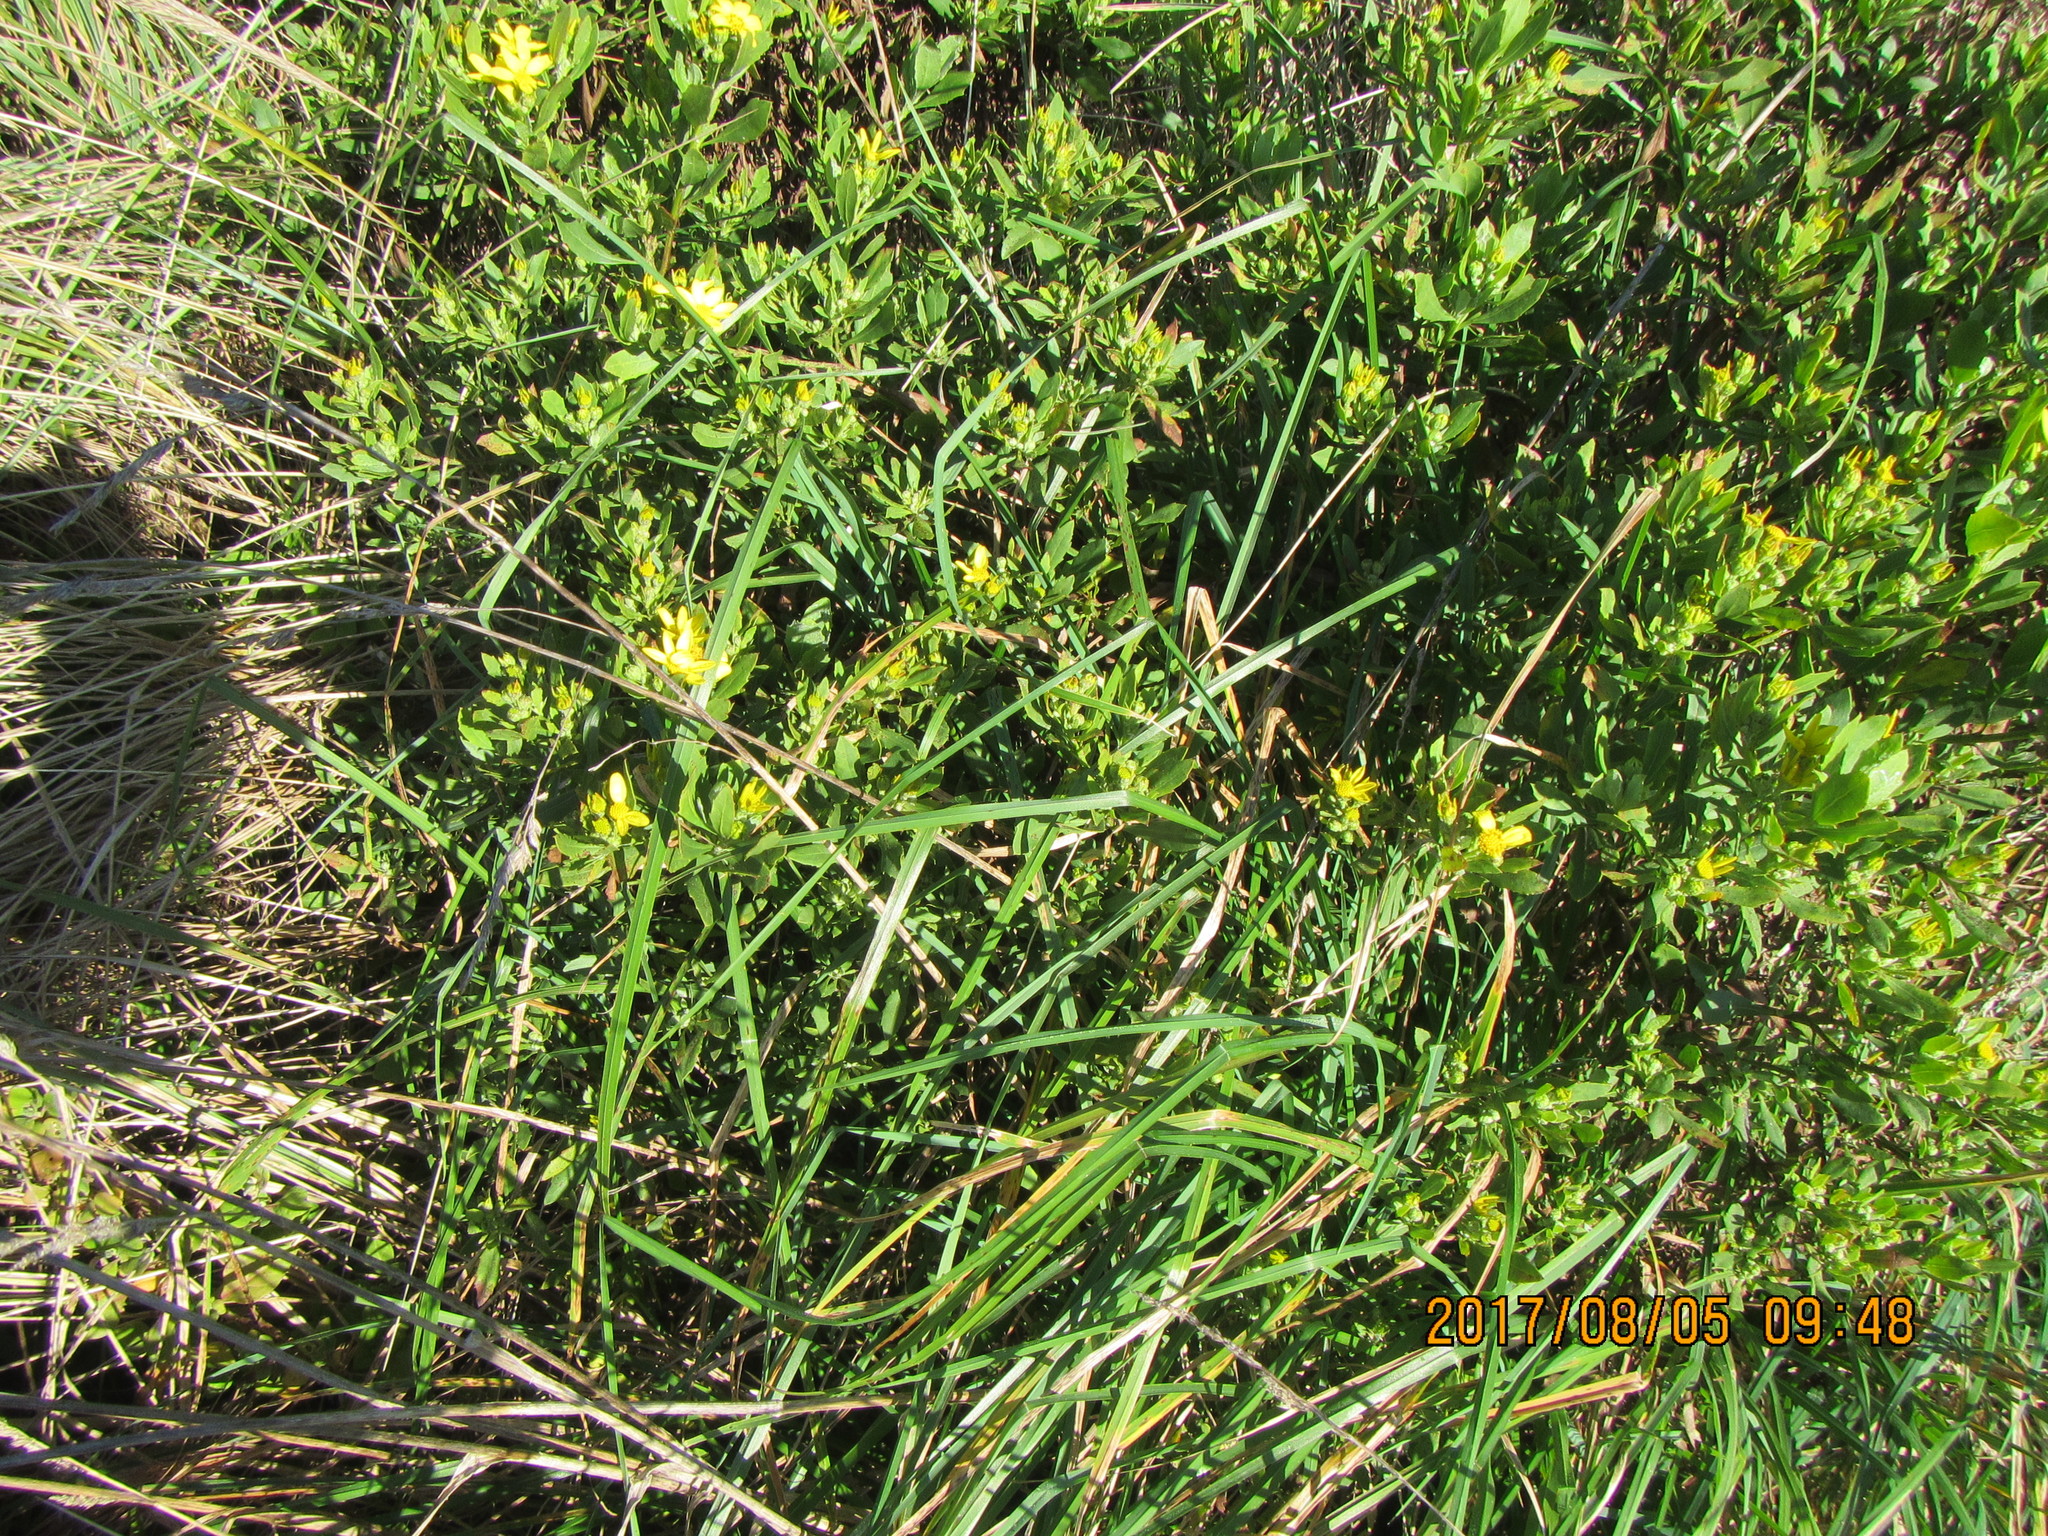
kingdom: Plantae
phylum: Tracheophyta
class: Magnoliopsida
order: Asterales
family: Asteraceae
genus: Osteospermum
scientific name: Osteospermum moniliferum
